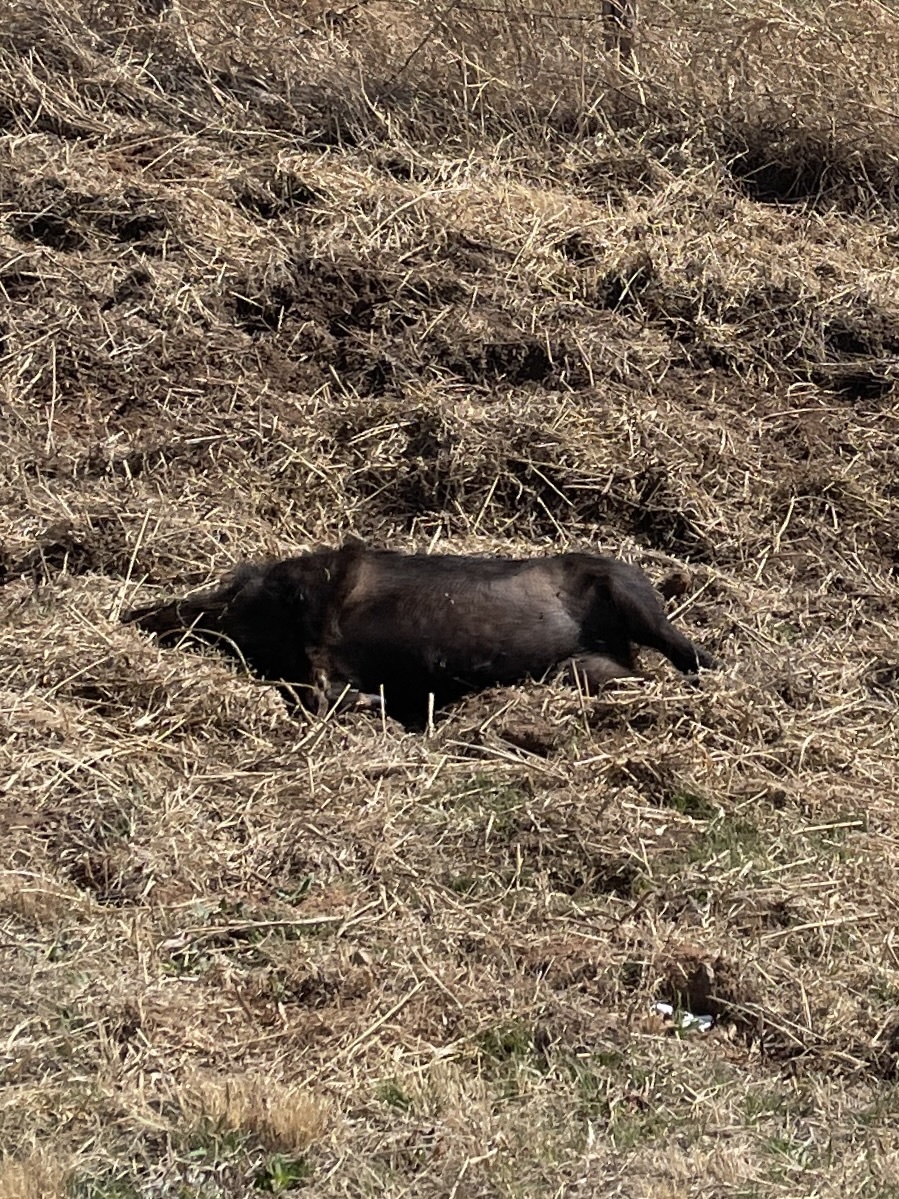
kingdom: Animalia
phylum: Chordata
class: Mammalia
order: Artiodactyla
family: Suidae
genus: Sus
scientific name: Sus scrofa
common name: Wild boar
